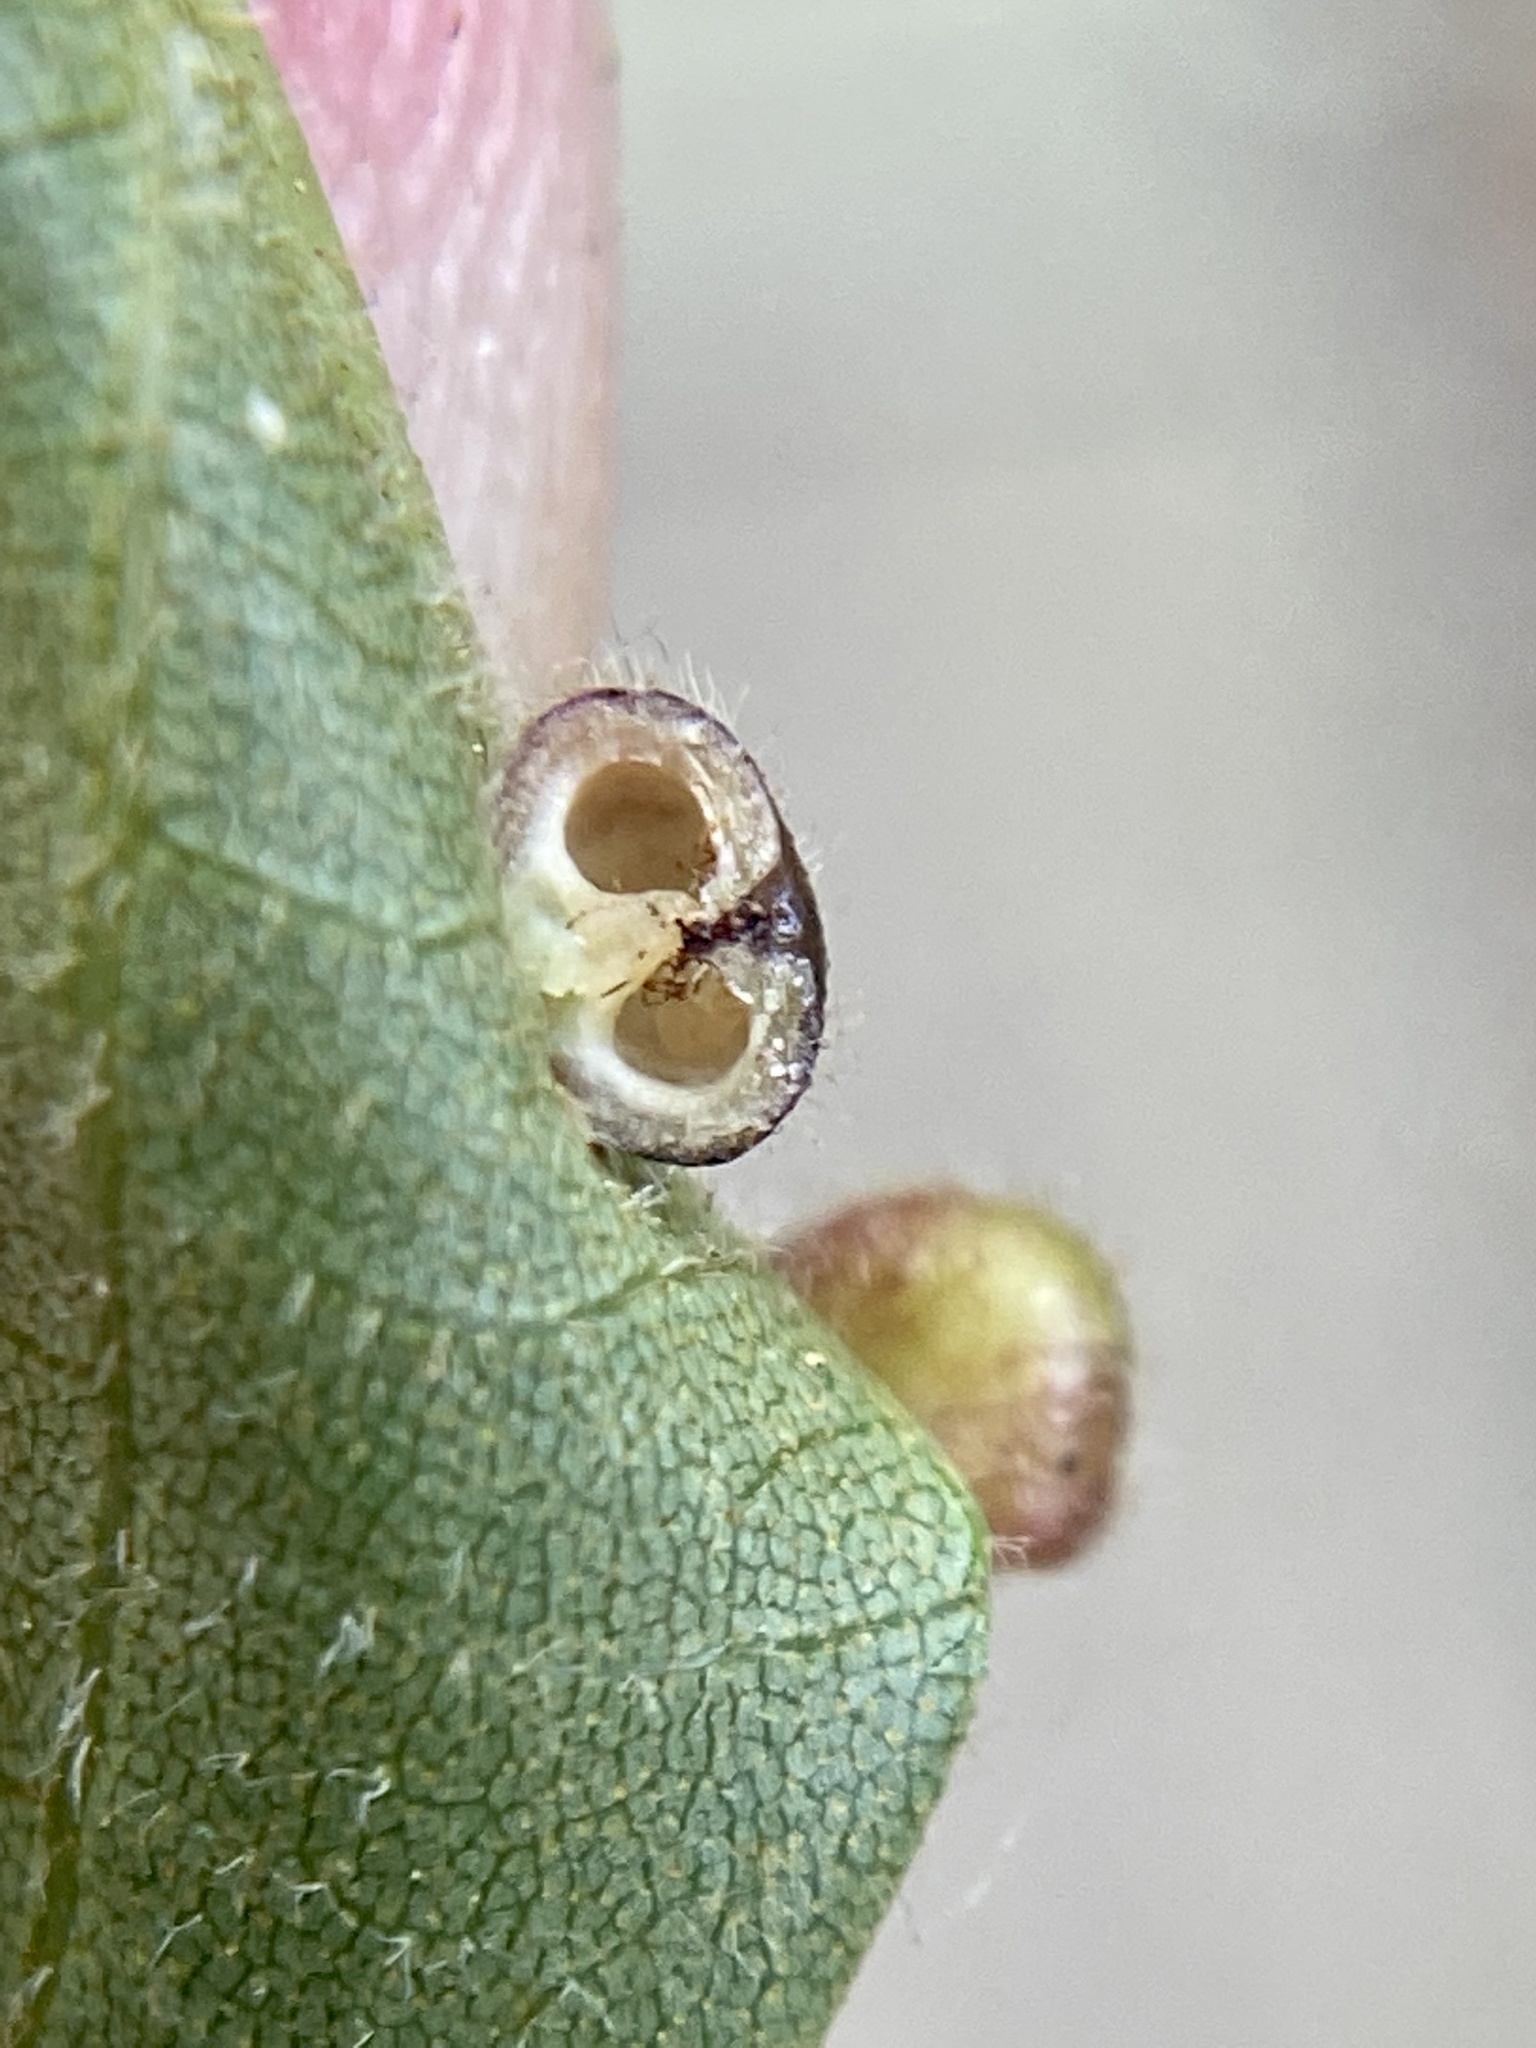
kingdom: Animalia
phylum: Arthropoda
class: Insecta
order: Diptera
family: Cecidomyiidae
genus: Caryomyia
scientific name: Caryomyia thompsoni
